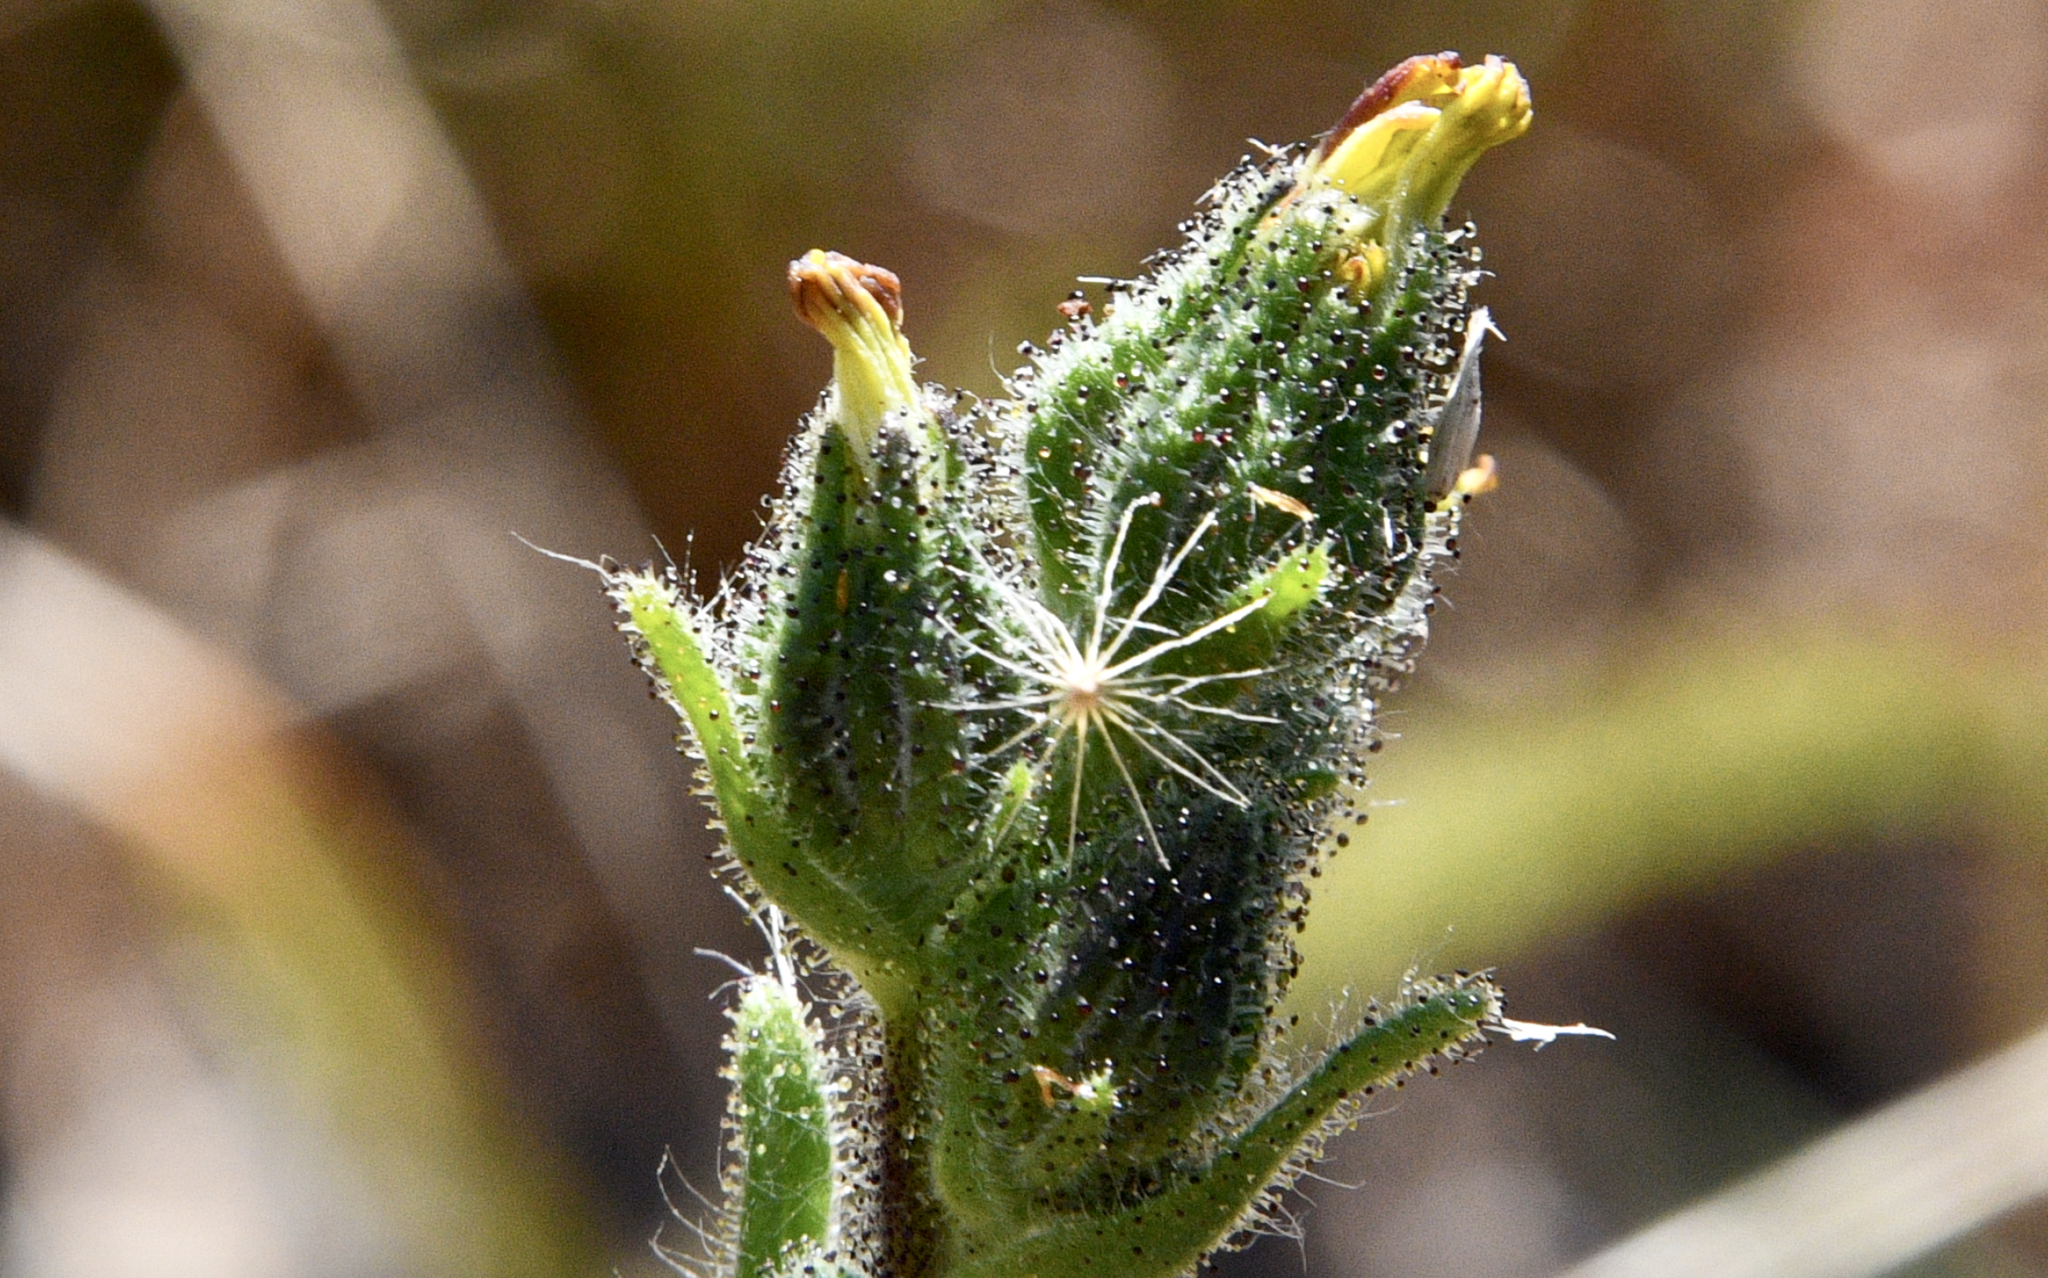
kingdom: Plantae
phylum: Tracheophyta
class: Magnoliopsida
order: Asterales
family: Asteraceae
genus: Madia
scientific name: Madia sativa
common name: Coast tarweed
